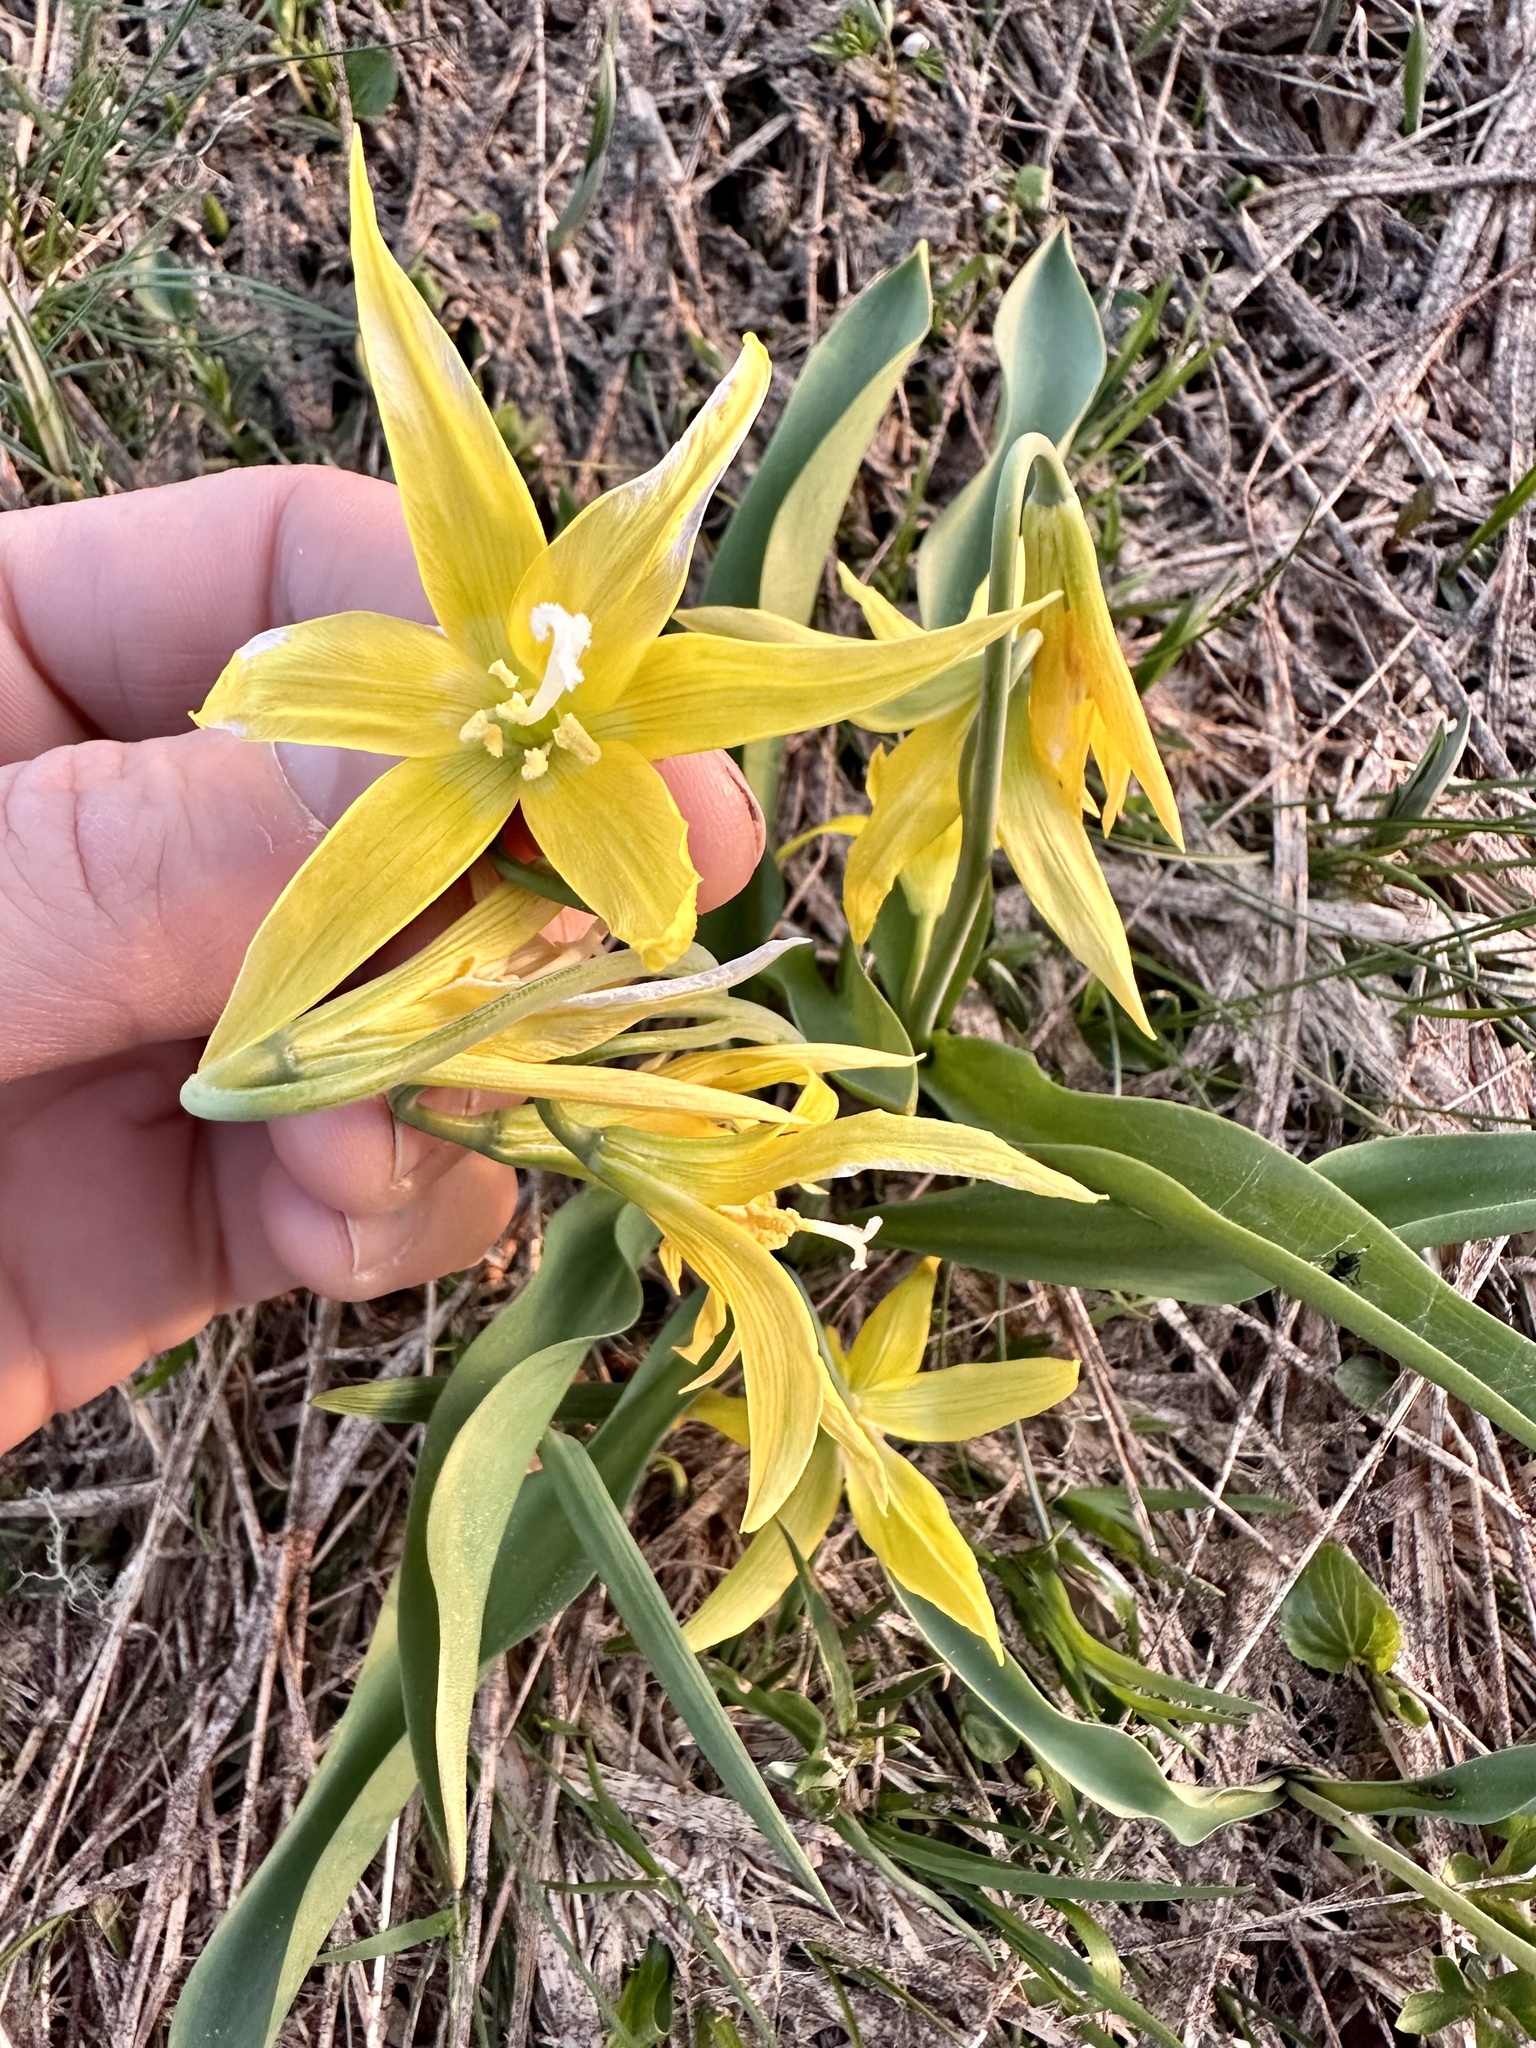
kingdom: Plantae
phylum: Tracheophyta
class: Liliopsida
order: Liliales
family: Liliaceae
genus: Erythronium
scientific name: Erythronium grandiflorum
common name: Avalanche-lily
